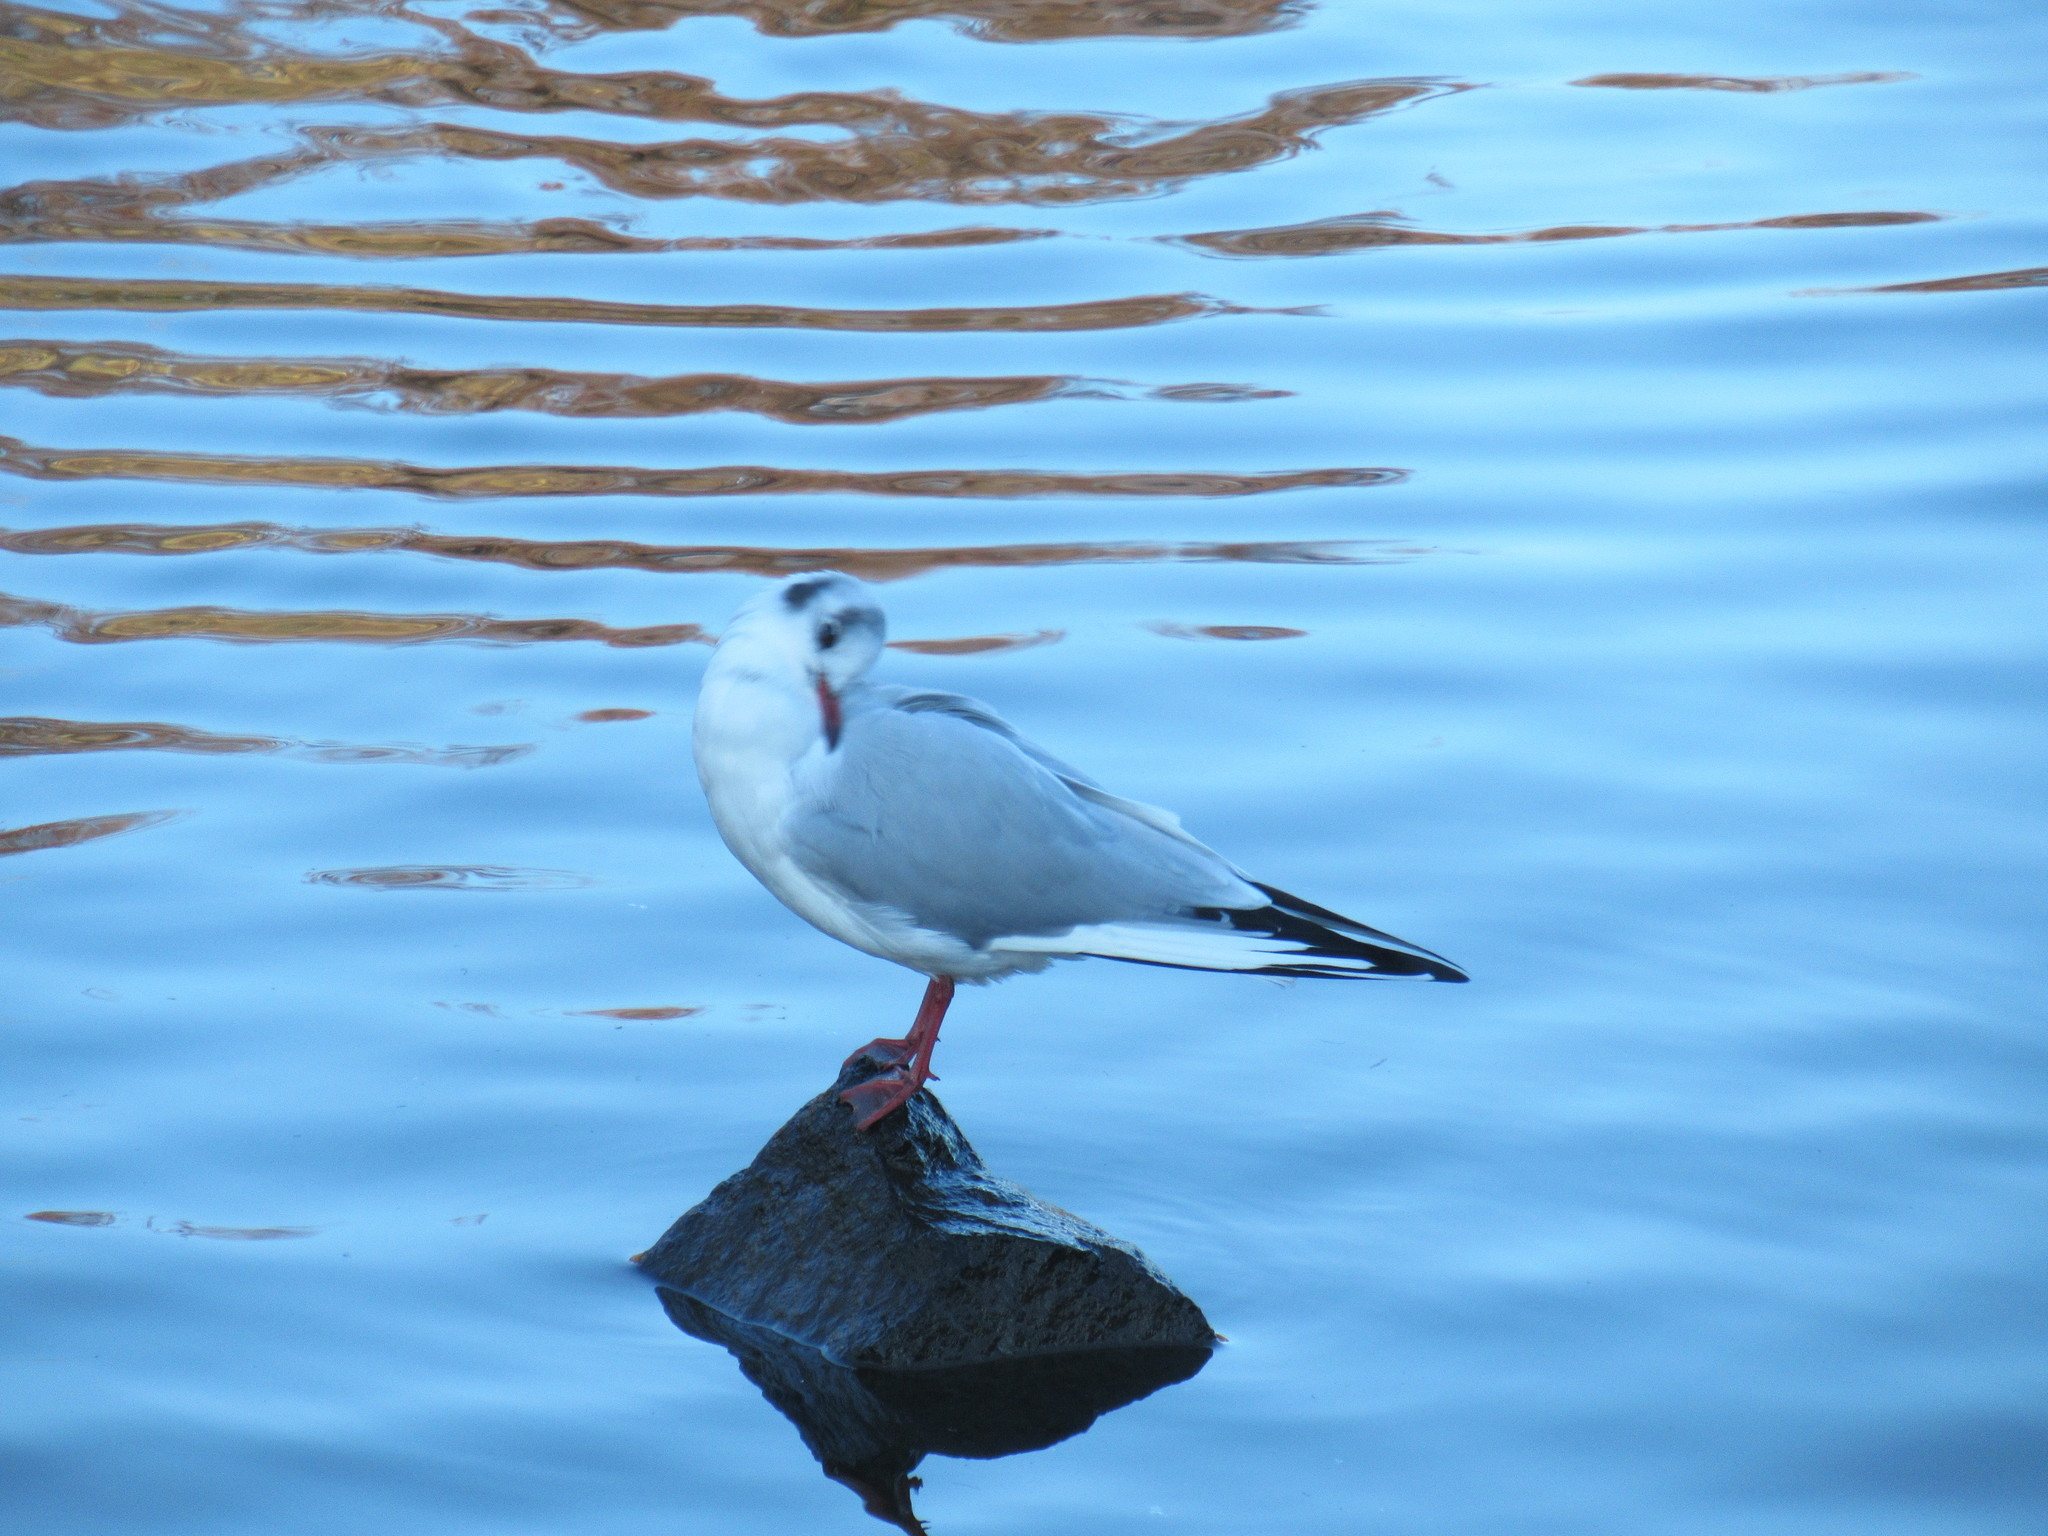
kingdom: Animalia
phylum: Chordata
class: Aves
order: Charadriiformes
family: Laridae
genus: Chroicocephalus
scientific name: Chroicocephalus ridibundus
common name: Black-headed gull
